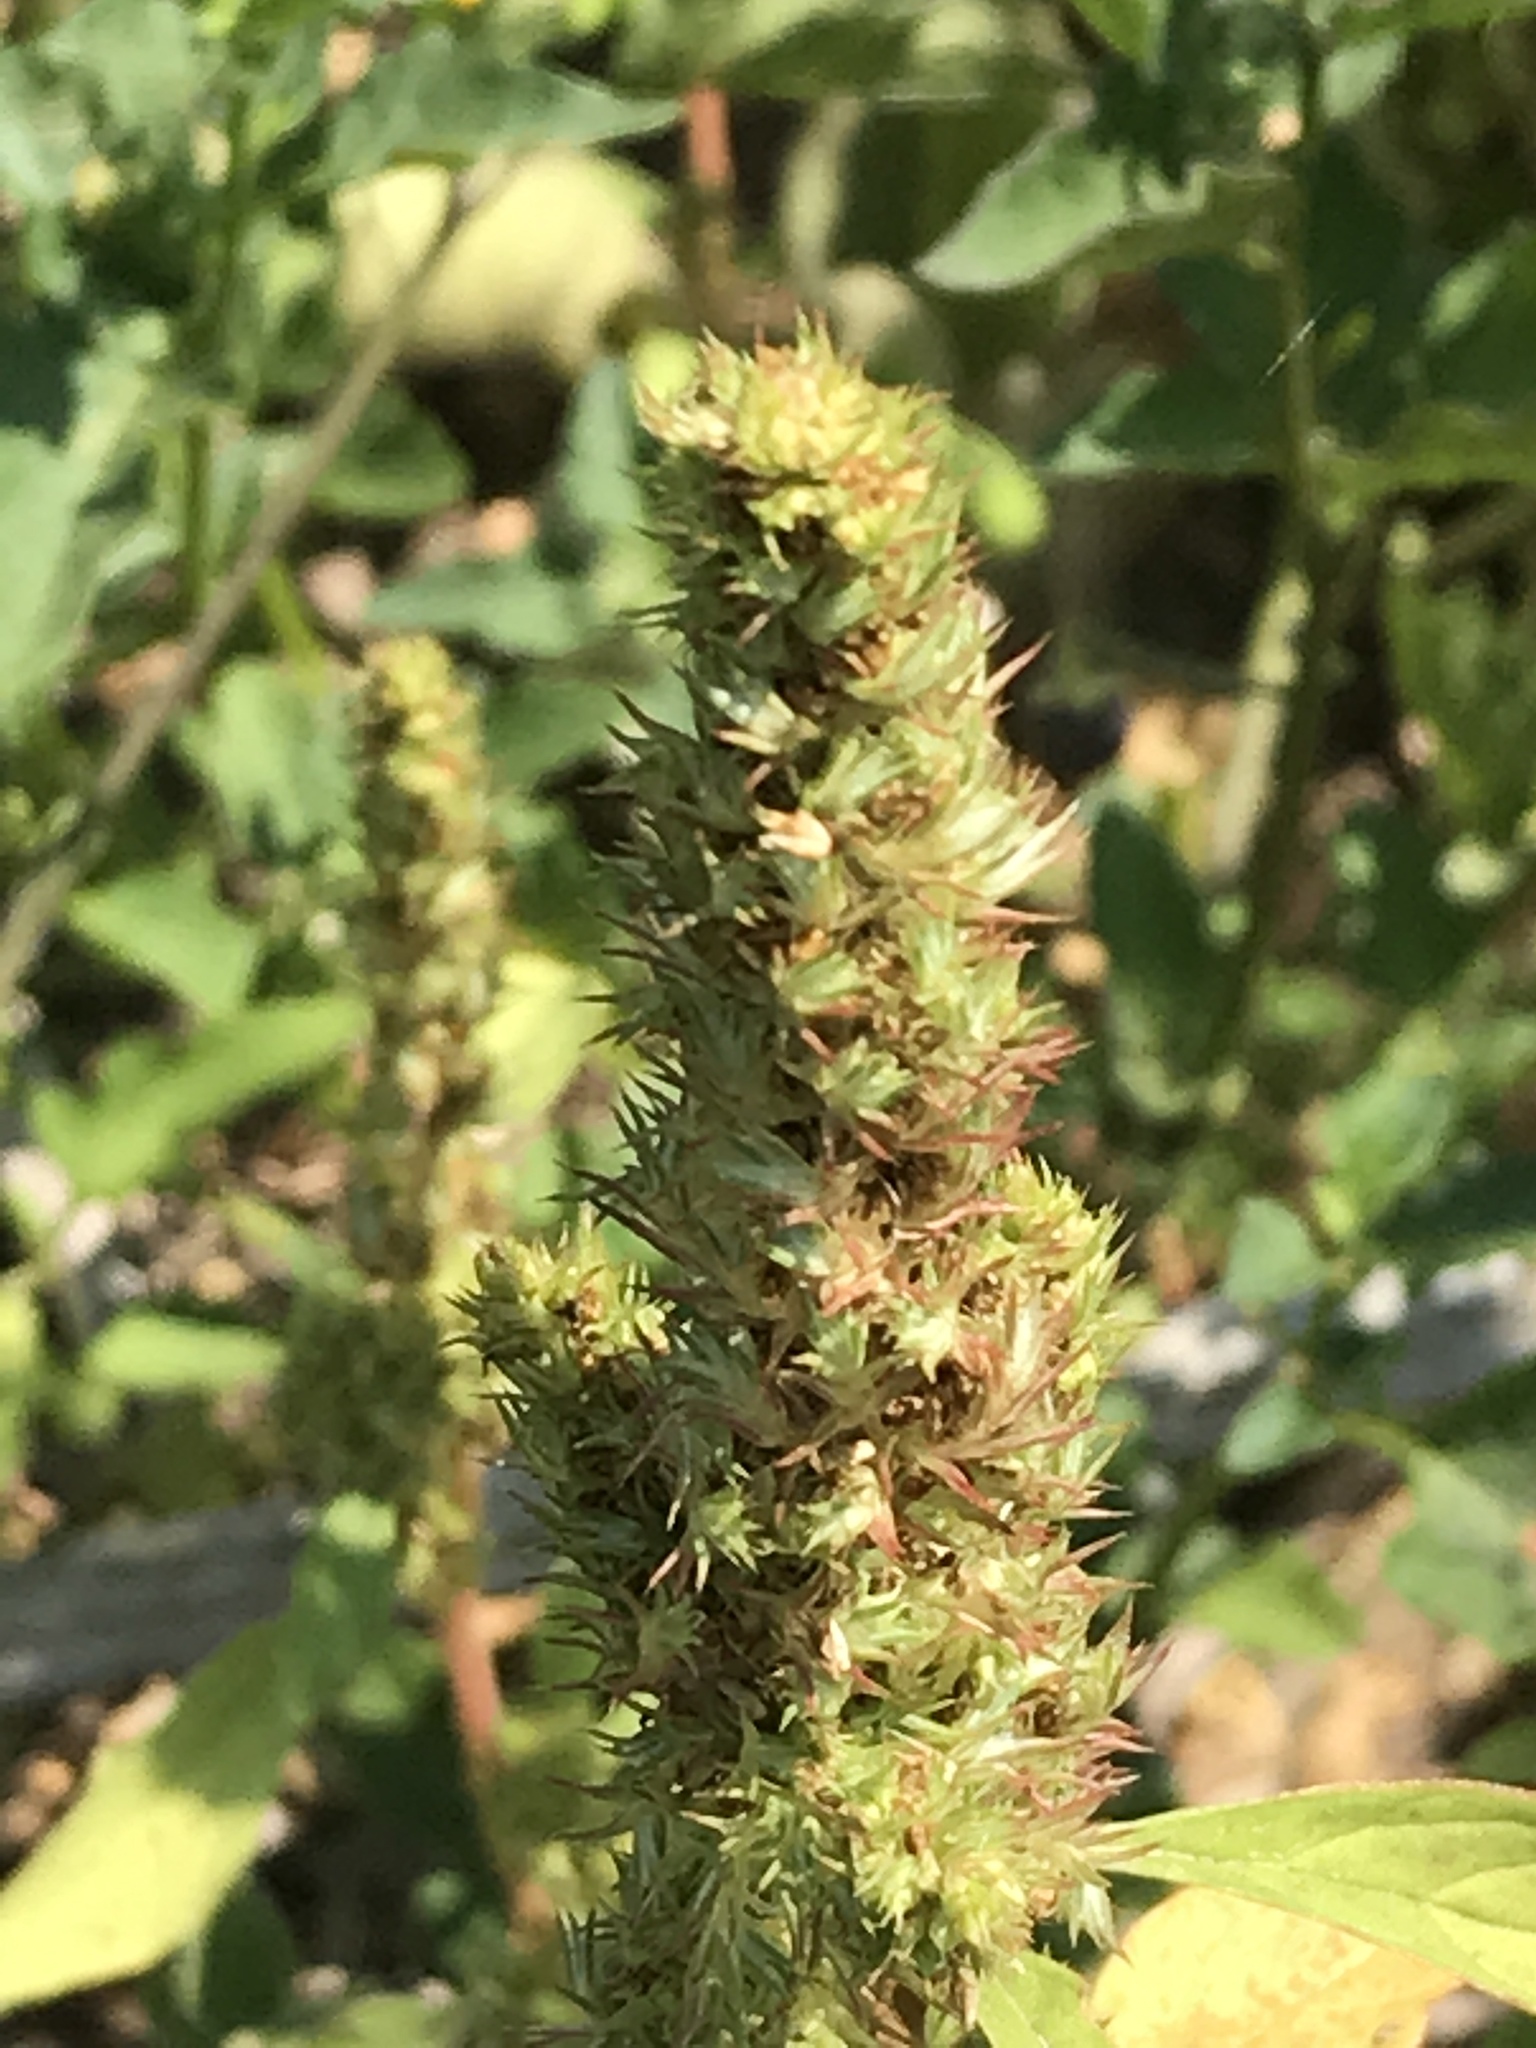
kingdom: Plantae
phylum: Tracheophyta
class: Magnoliopsida
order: Caryophyllales
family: Amaranthaceae
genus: Amaranthus
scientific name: Amaranthus retroflexus
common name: Redroot amaranth
